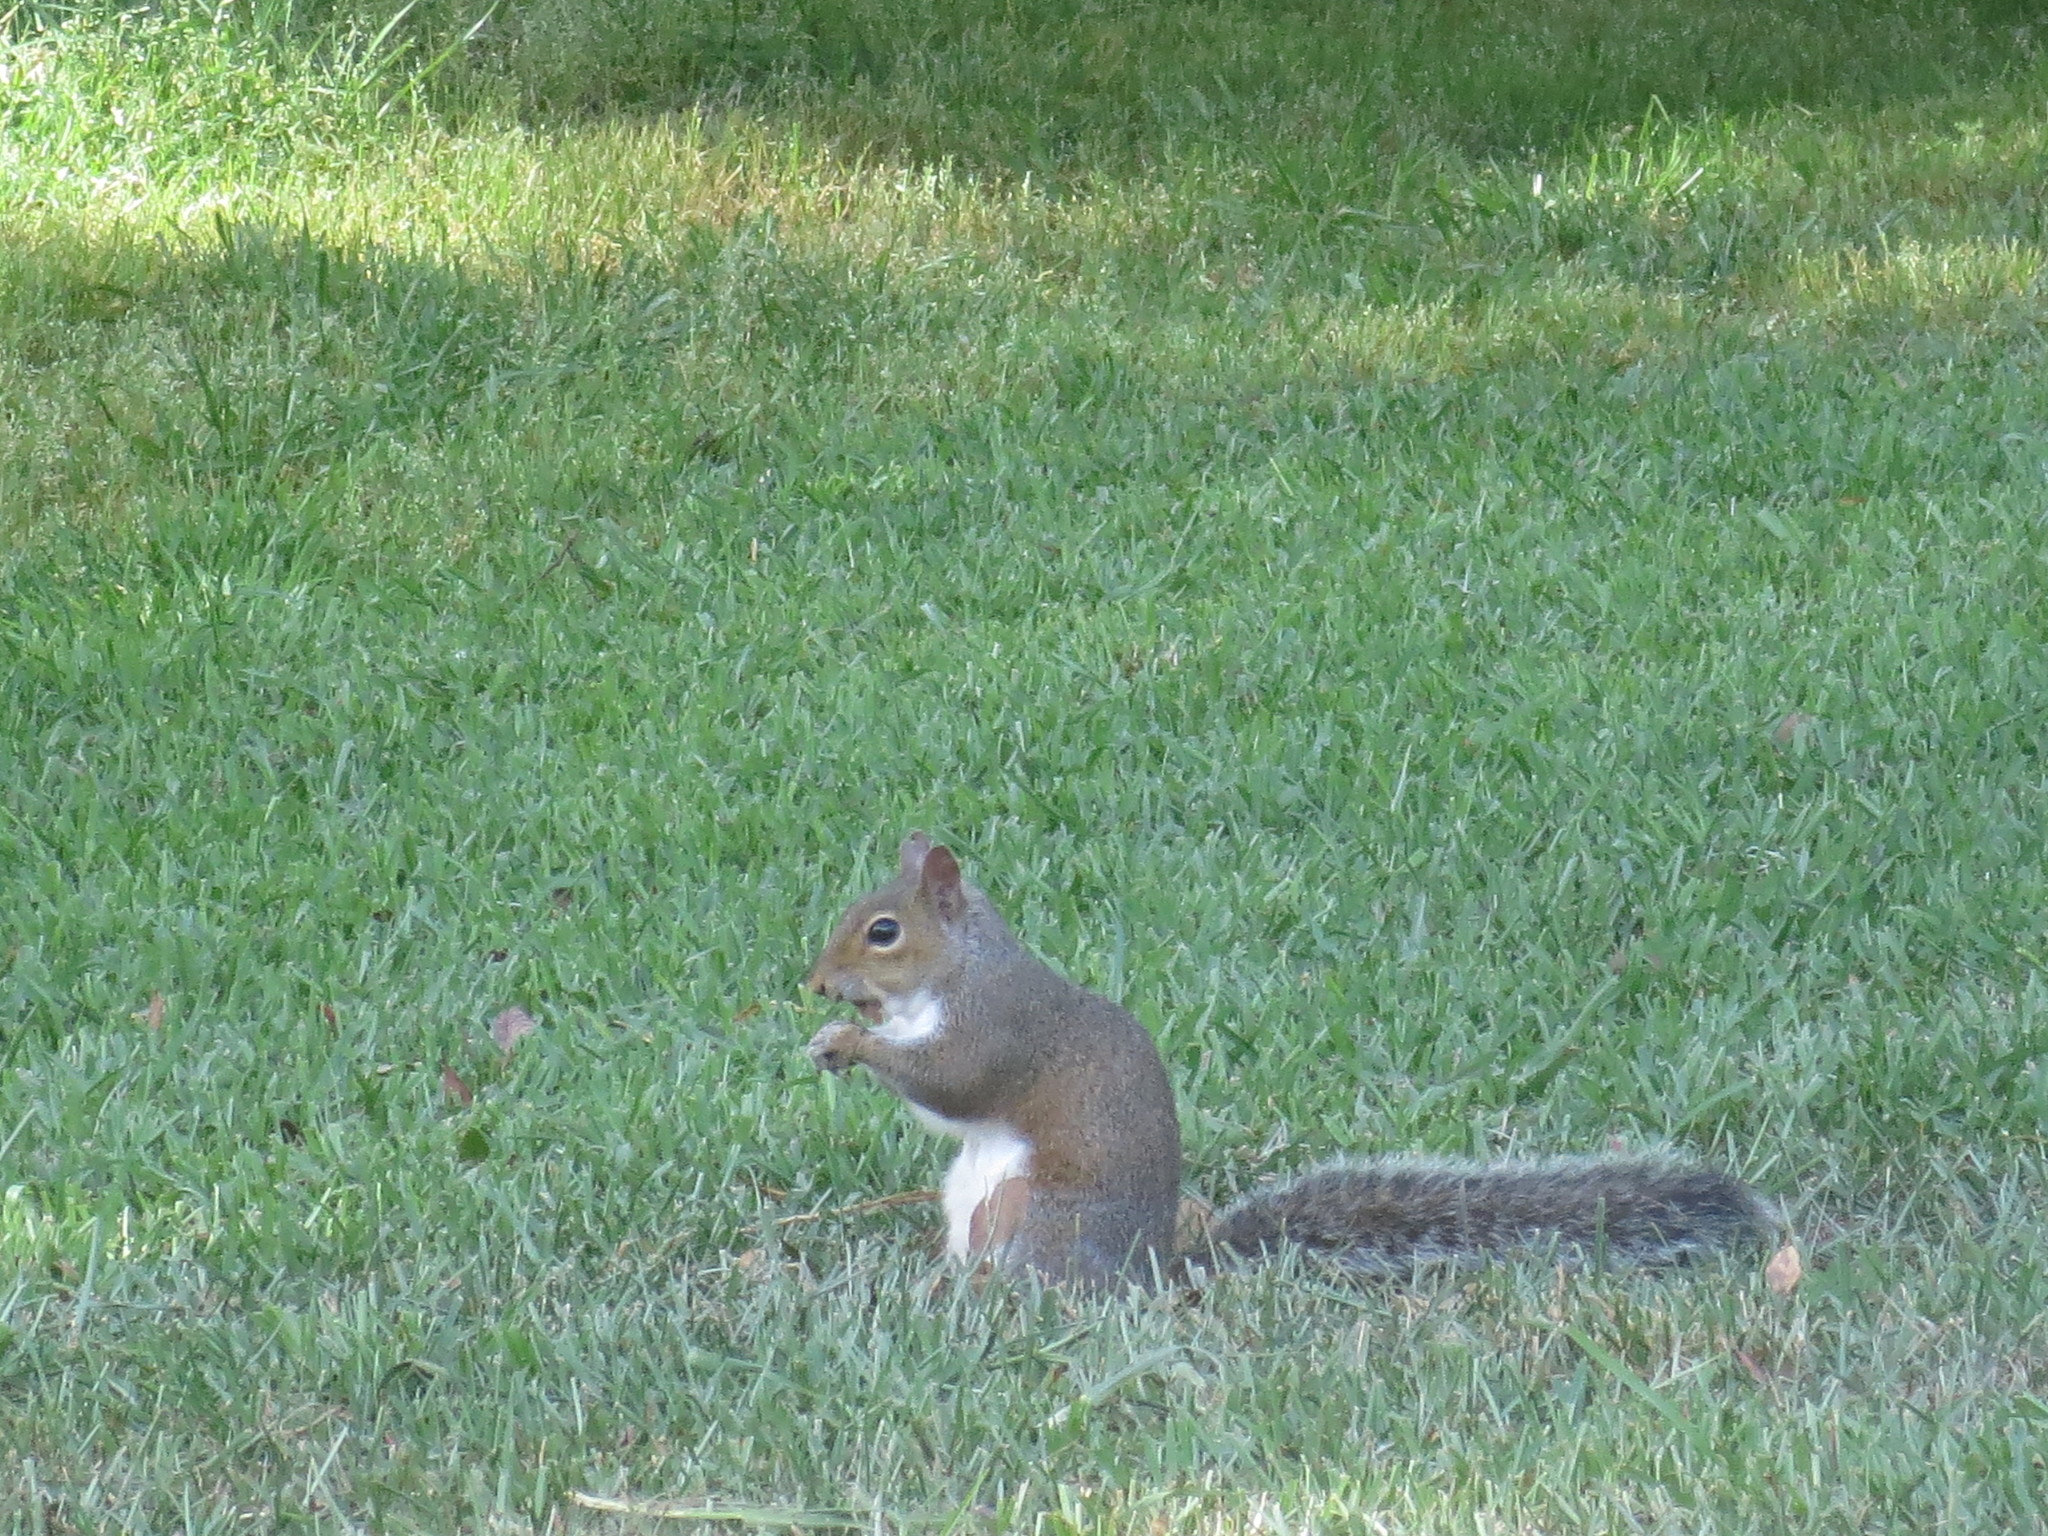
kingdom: Animalia
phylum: Chordata
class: Mammalia
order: Rodentia
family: Sciuridae
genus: Sciurus
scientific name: Sciurus carolinensis
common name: Eastern gray squirrel
